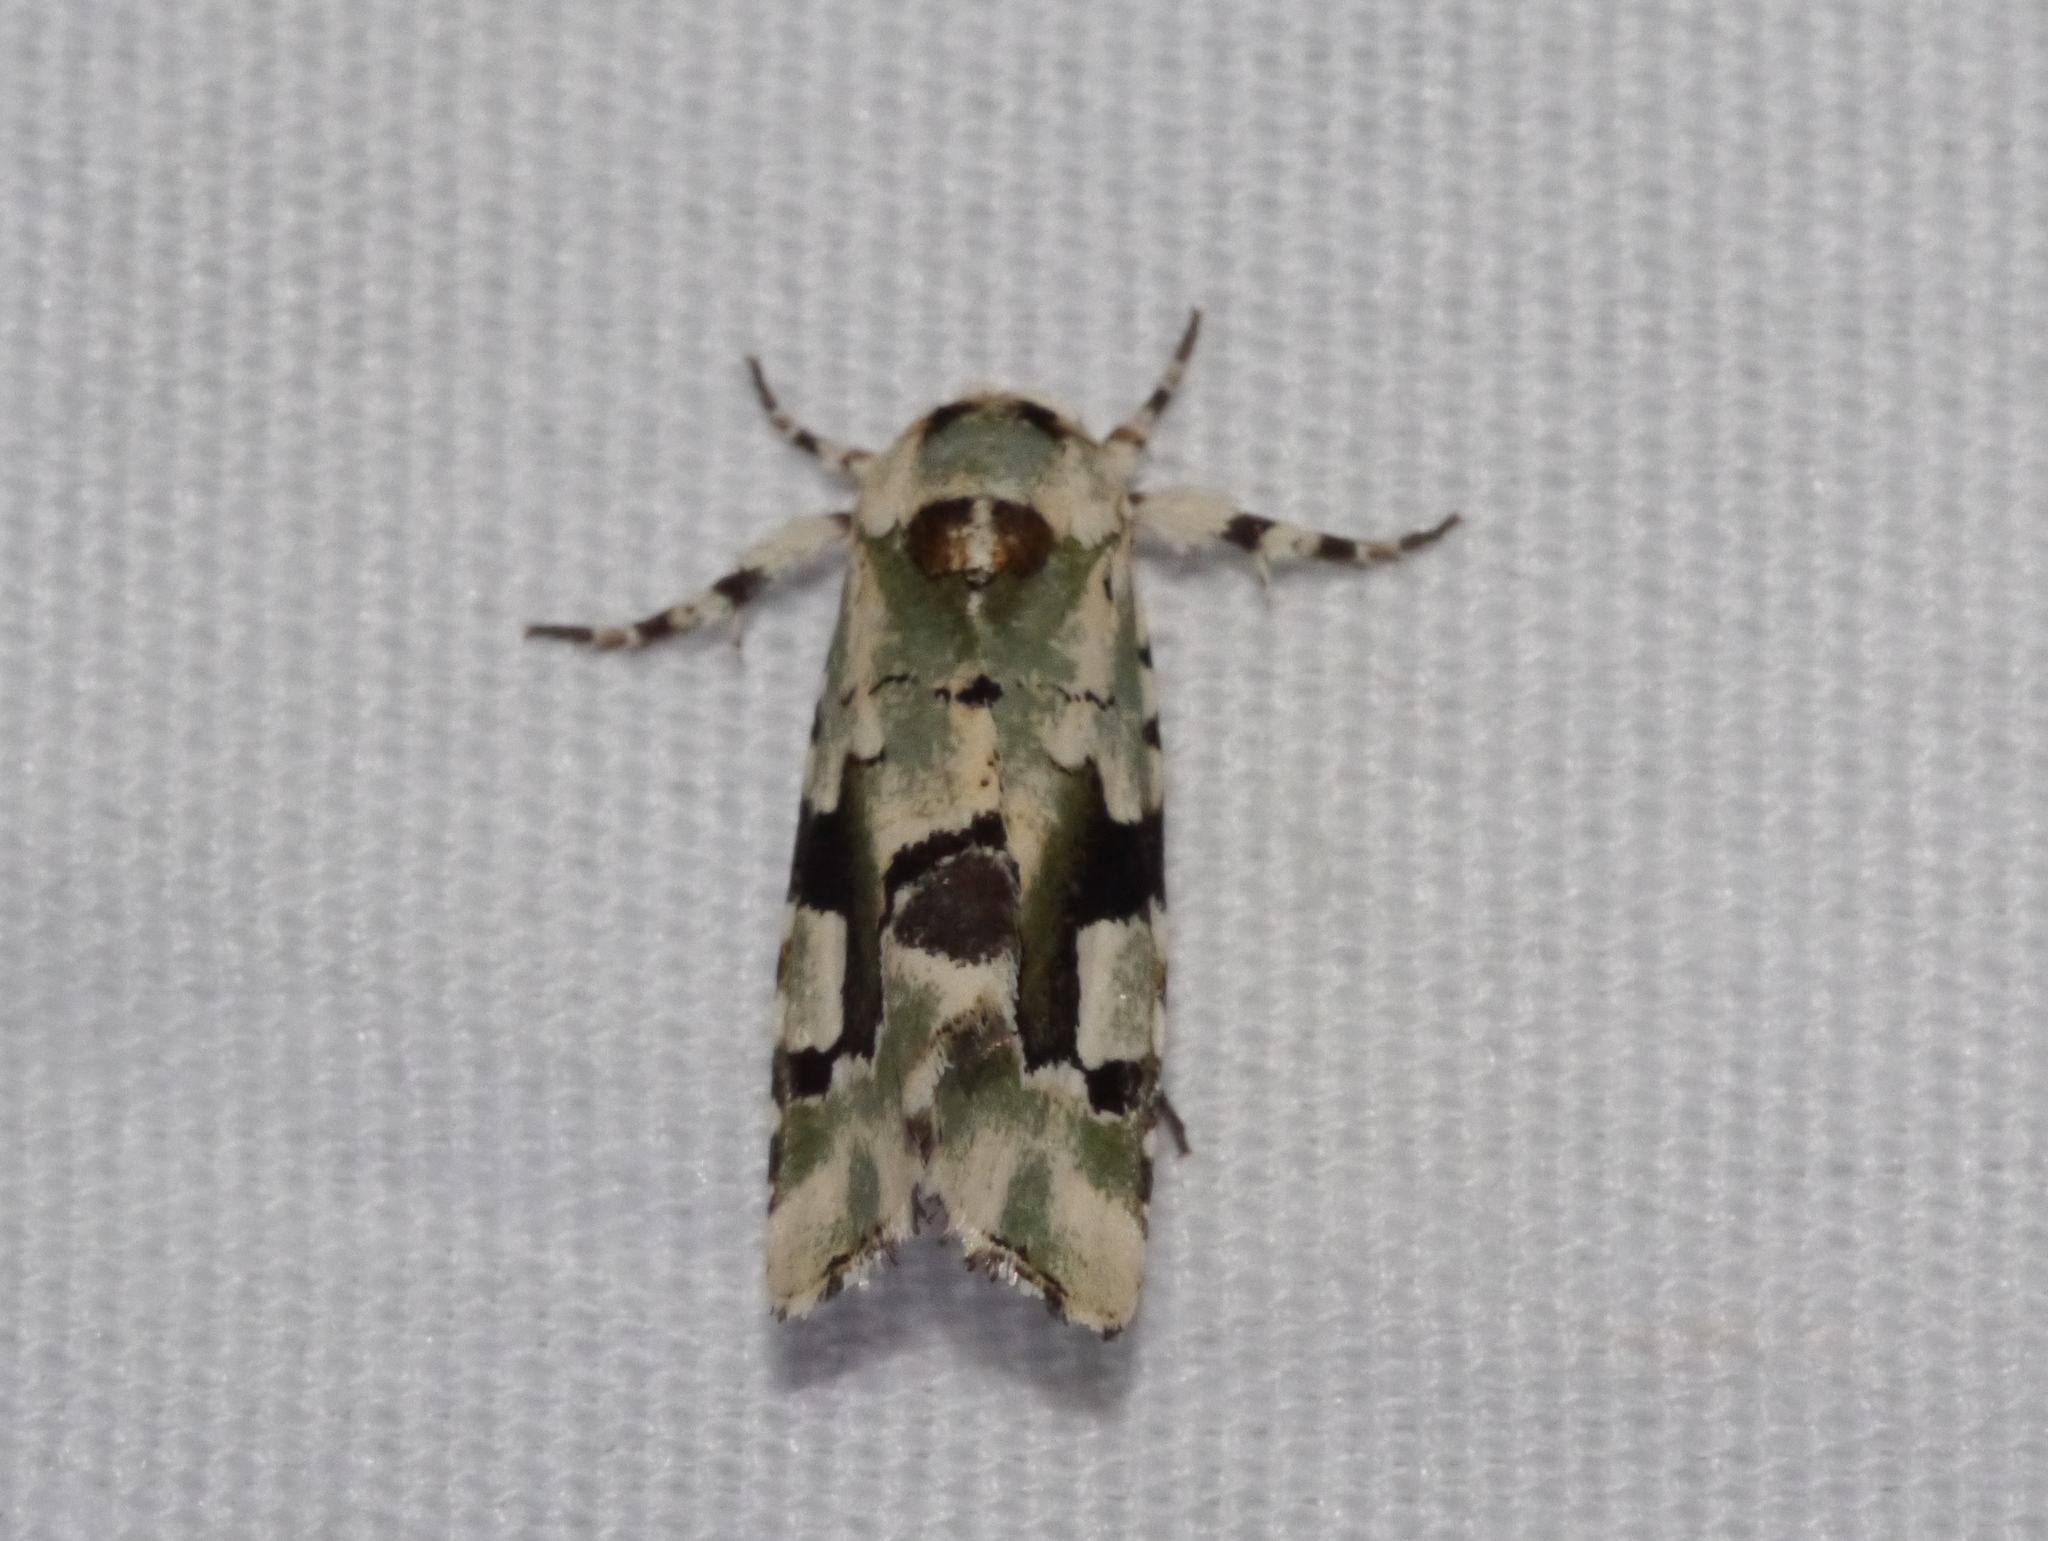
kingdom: Animalia
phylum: Arthropoda
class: Insecta
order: Lepidoptera
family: Noctuidae
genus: Emarginea
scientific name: Emarginea percara
